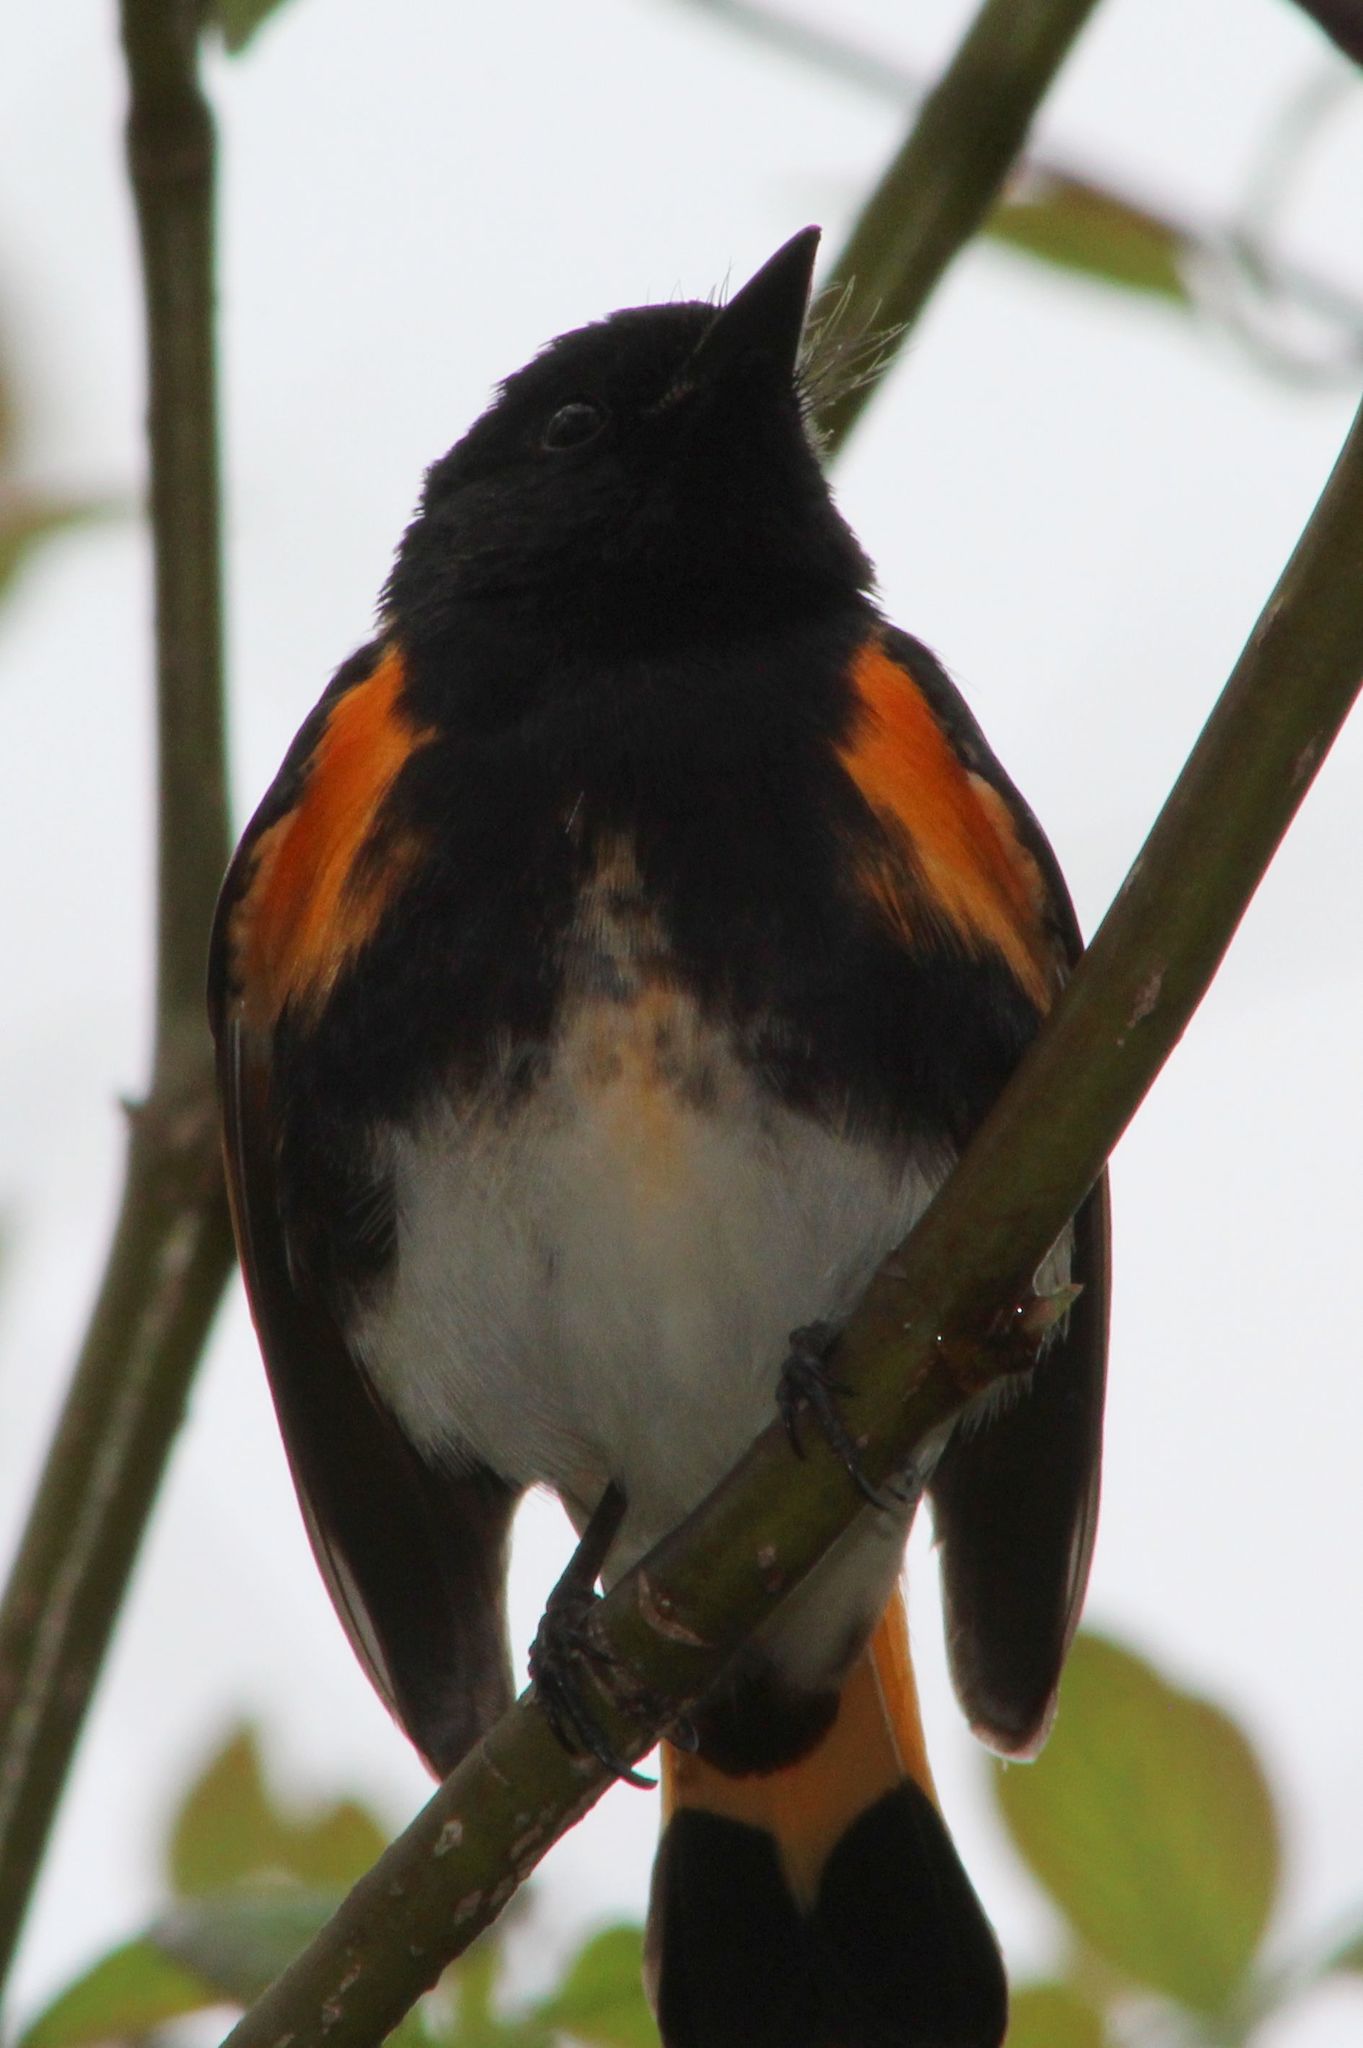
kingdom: Animalia
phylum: Chordata
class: Aves
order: Passeriformes
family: Parulidae
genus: Setophaga
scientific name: Setophaga ruticilla
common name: American redstart
